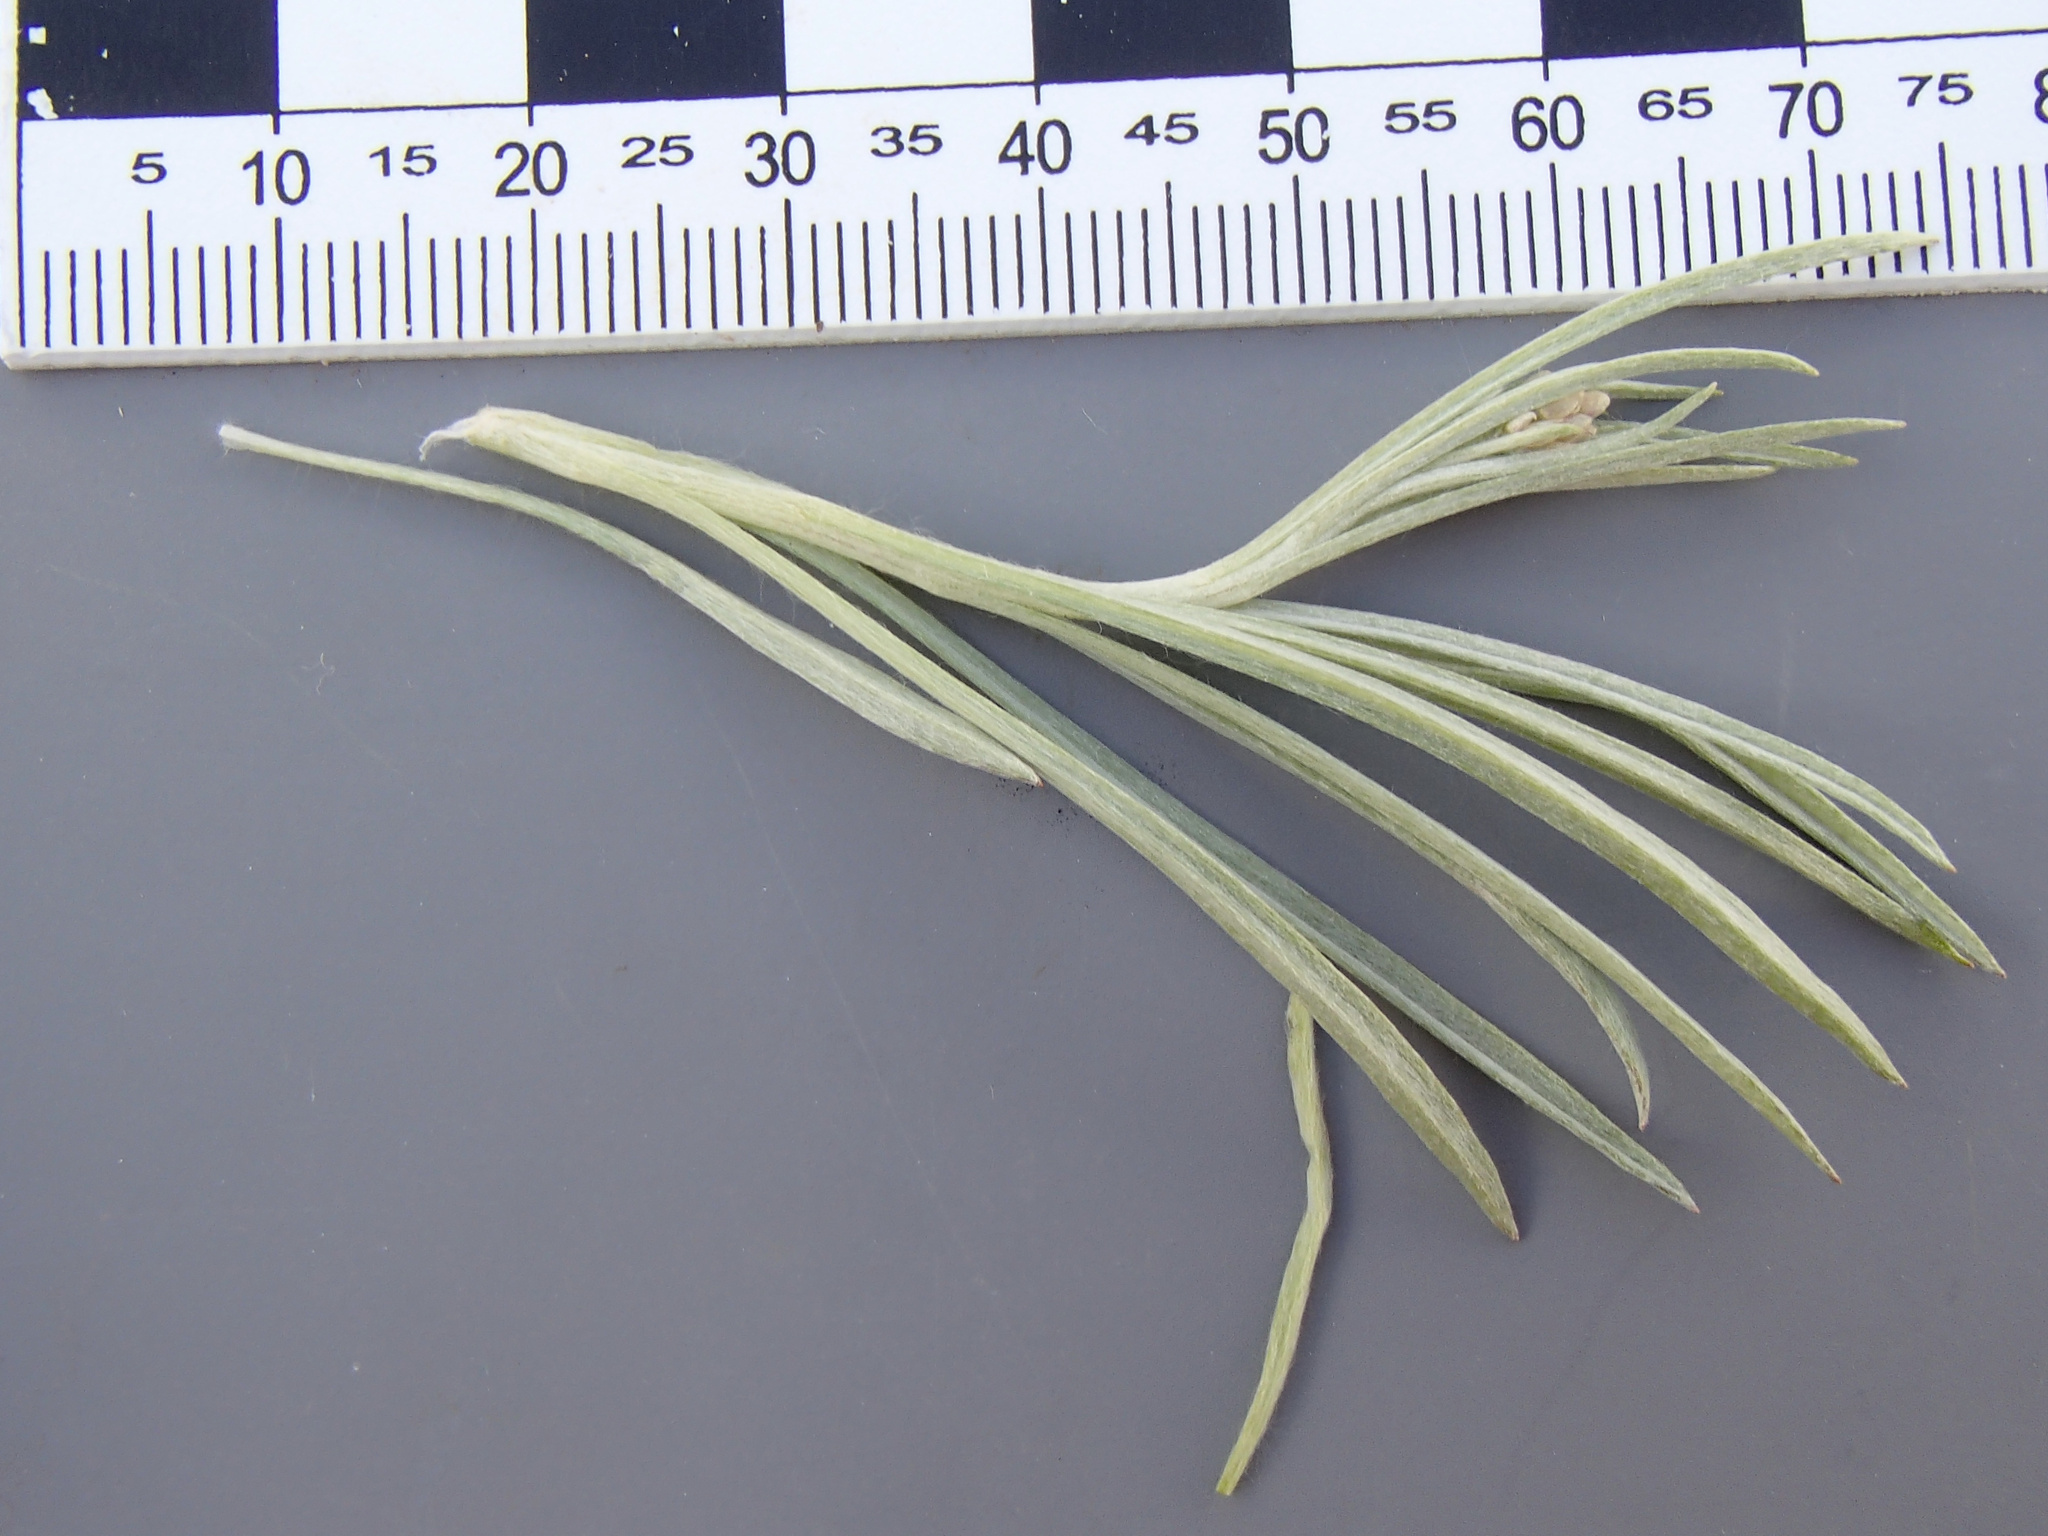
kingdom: Plantae
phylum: Tracheophyta
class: Magnoliopsida
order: Asterales
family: Asteraceae
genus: Antennaria
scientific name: Antennaria luzuloides
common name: Rush pussytoes
